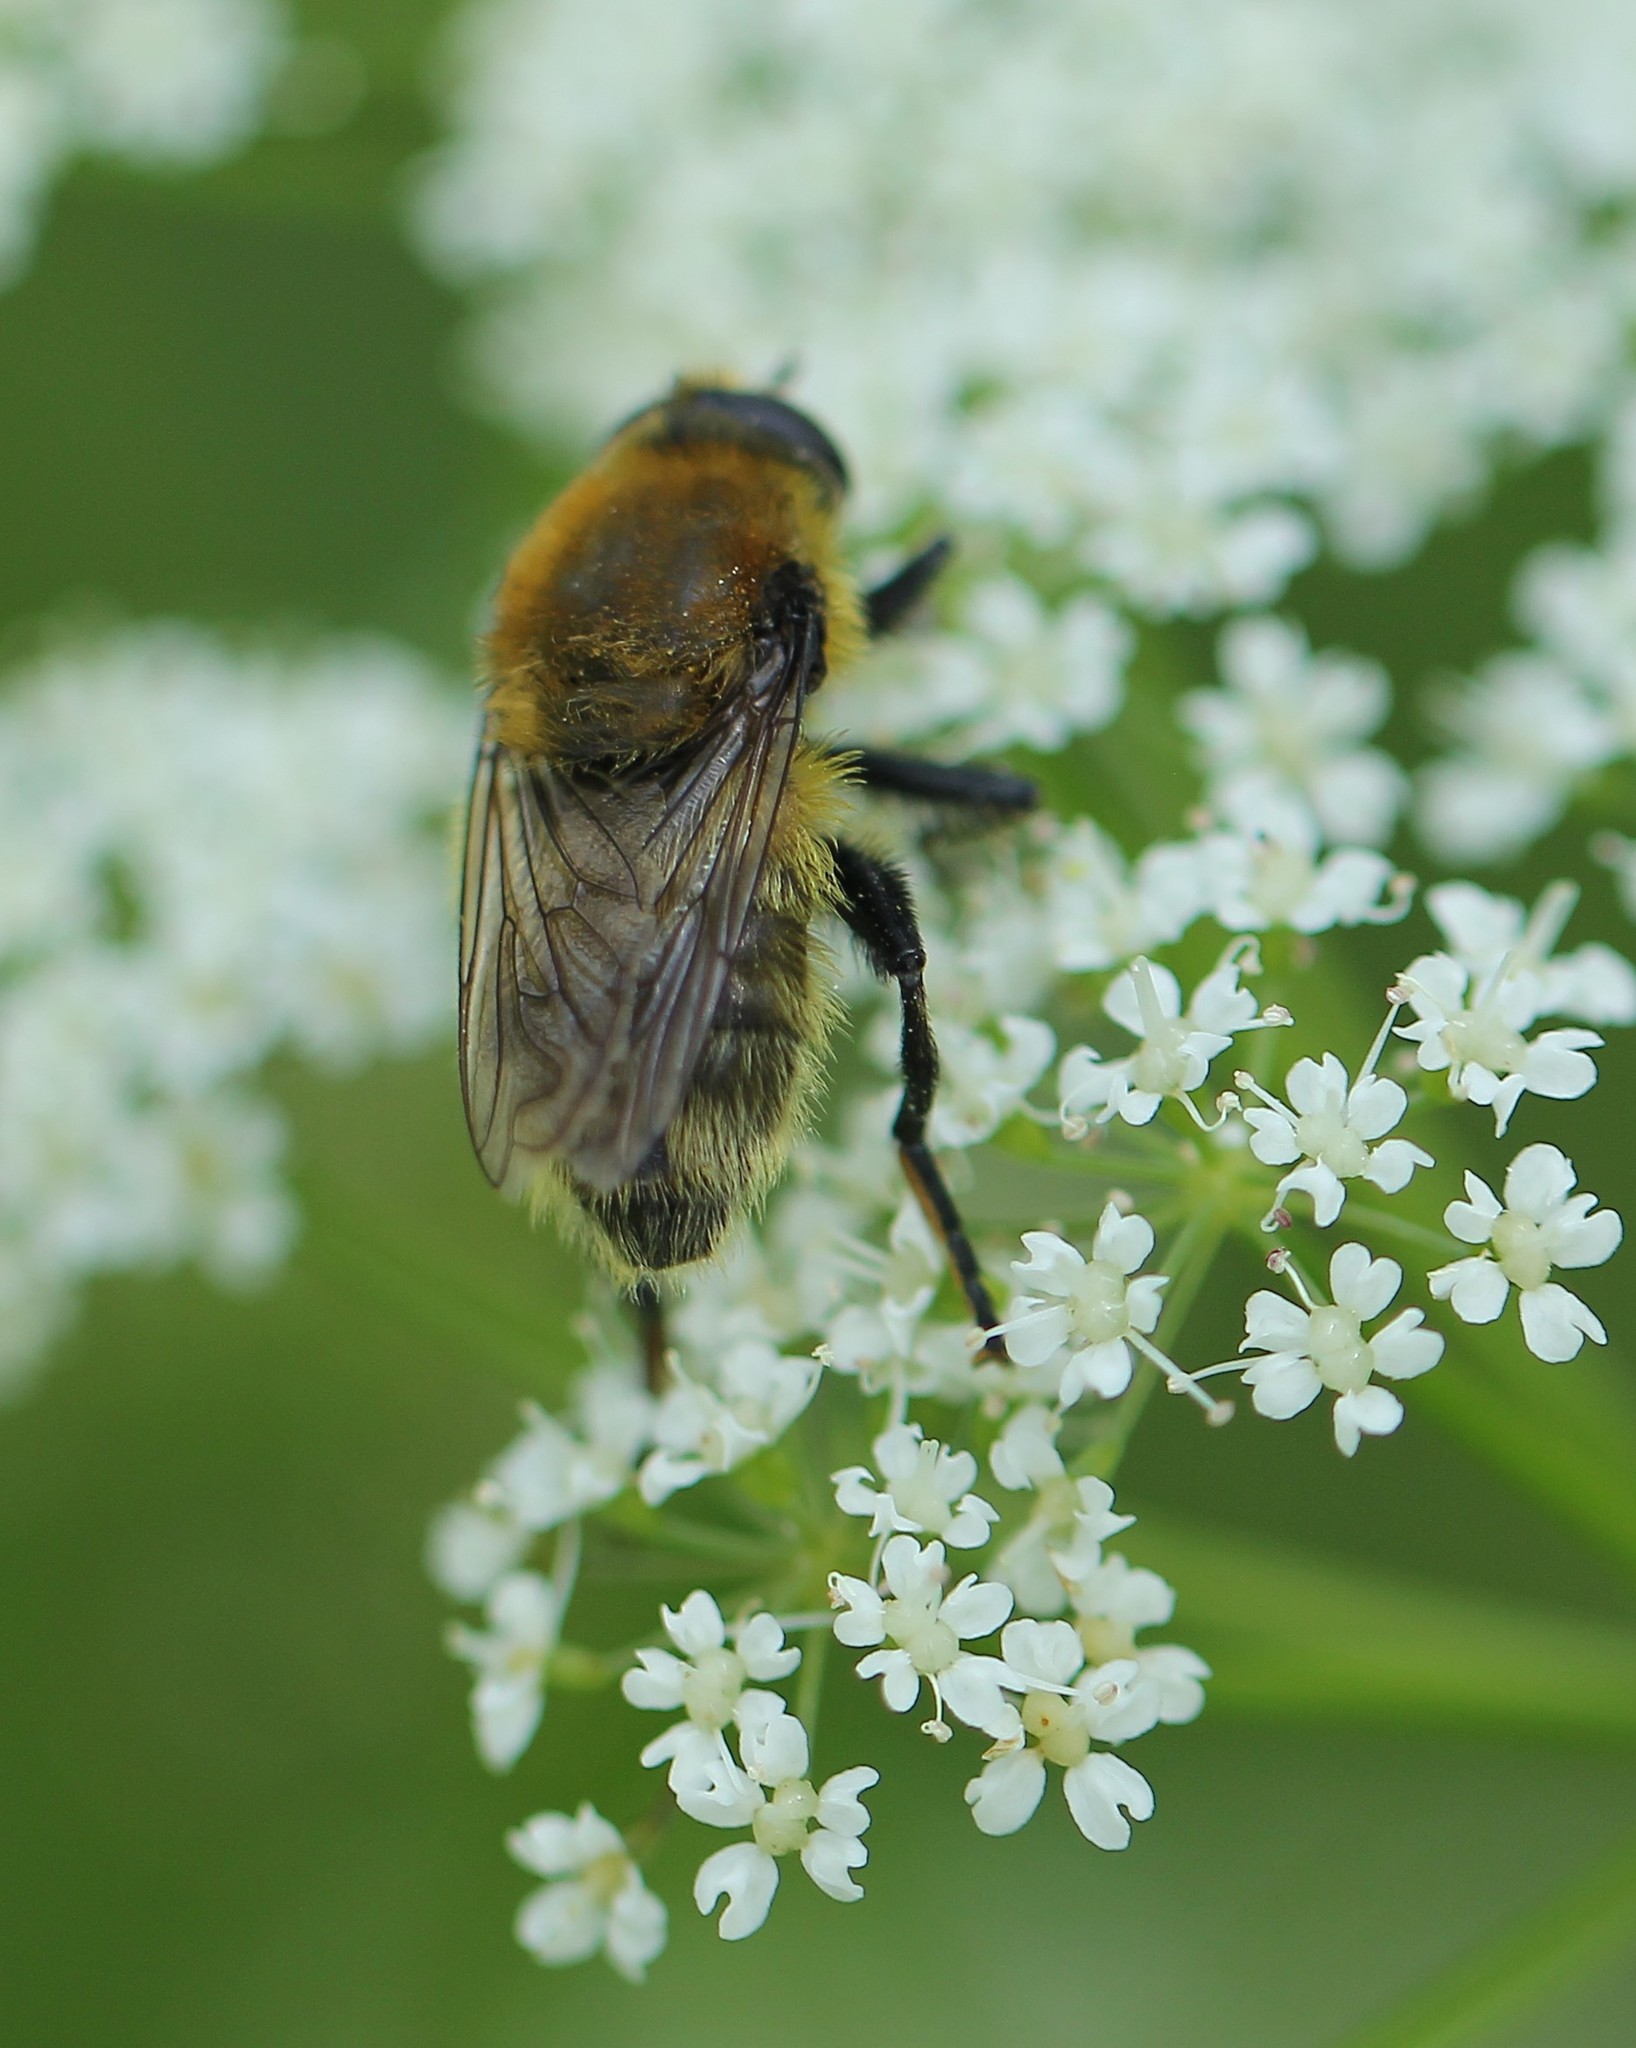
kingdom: Animalia
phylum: Arthropoda
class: Insecta
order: Diptera
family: Syrphidae
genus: Merodon
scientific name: Merodon equestris
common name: Greater bulb-fly
